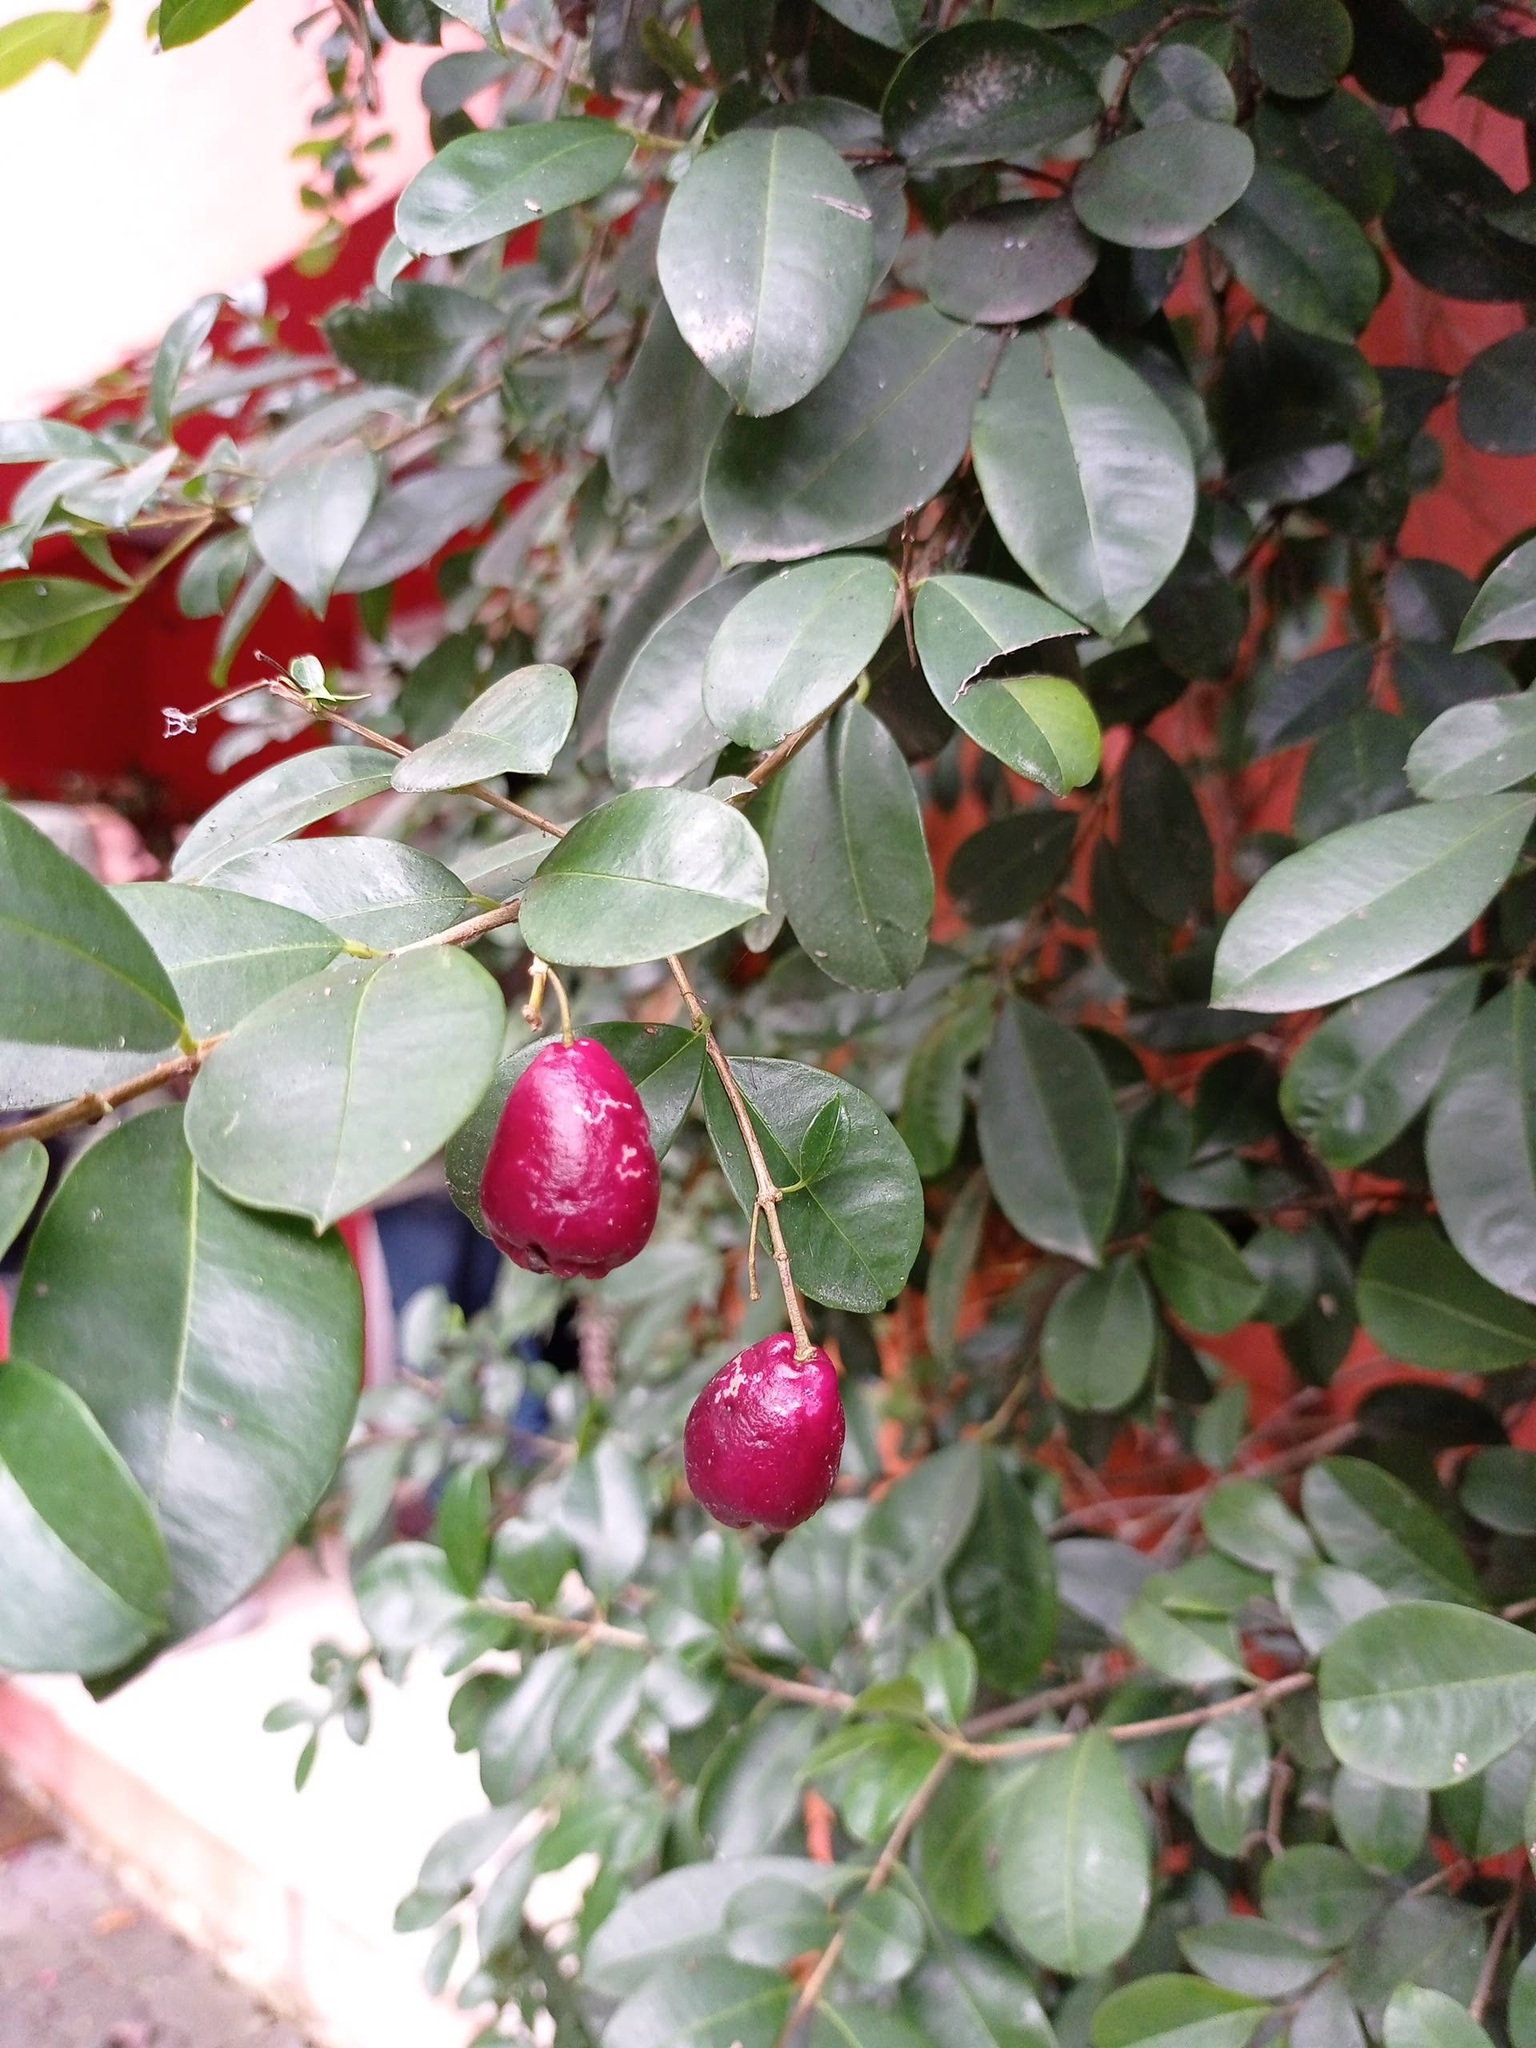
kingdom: Plantae
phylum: Tracheophyta
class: Magnoliopsida
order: Myrtales
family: Myrtaceae
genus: Syzygium
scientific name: Syzygium paniculatum
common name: Magenta lilly-pilly
